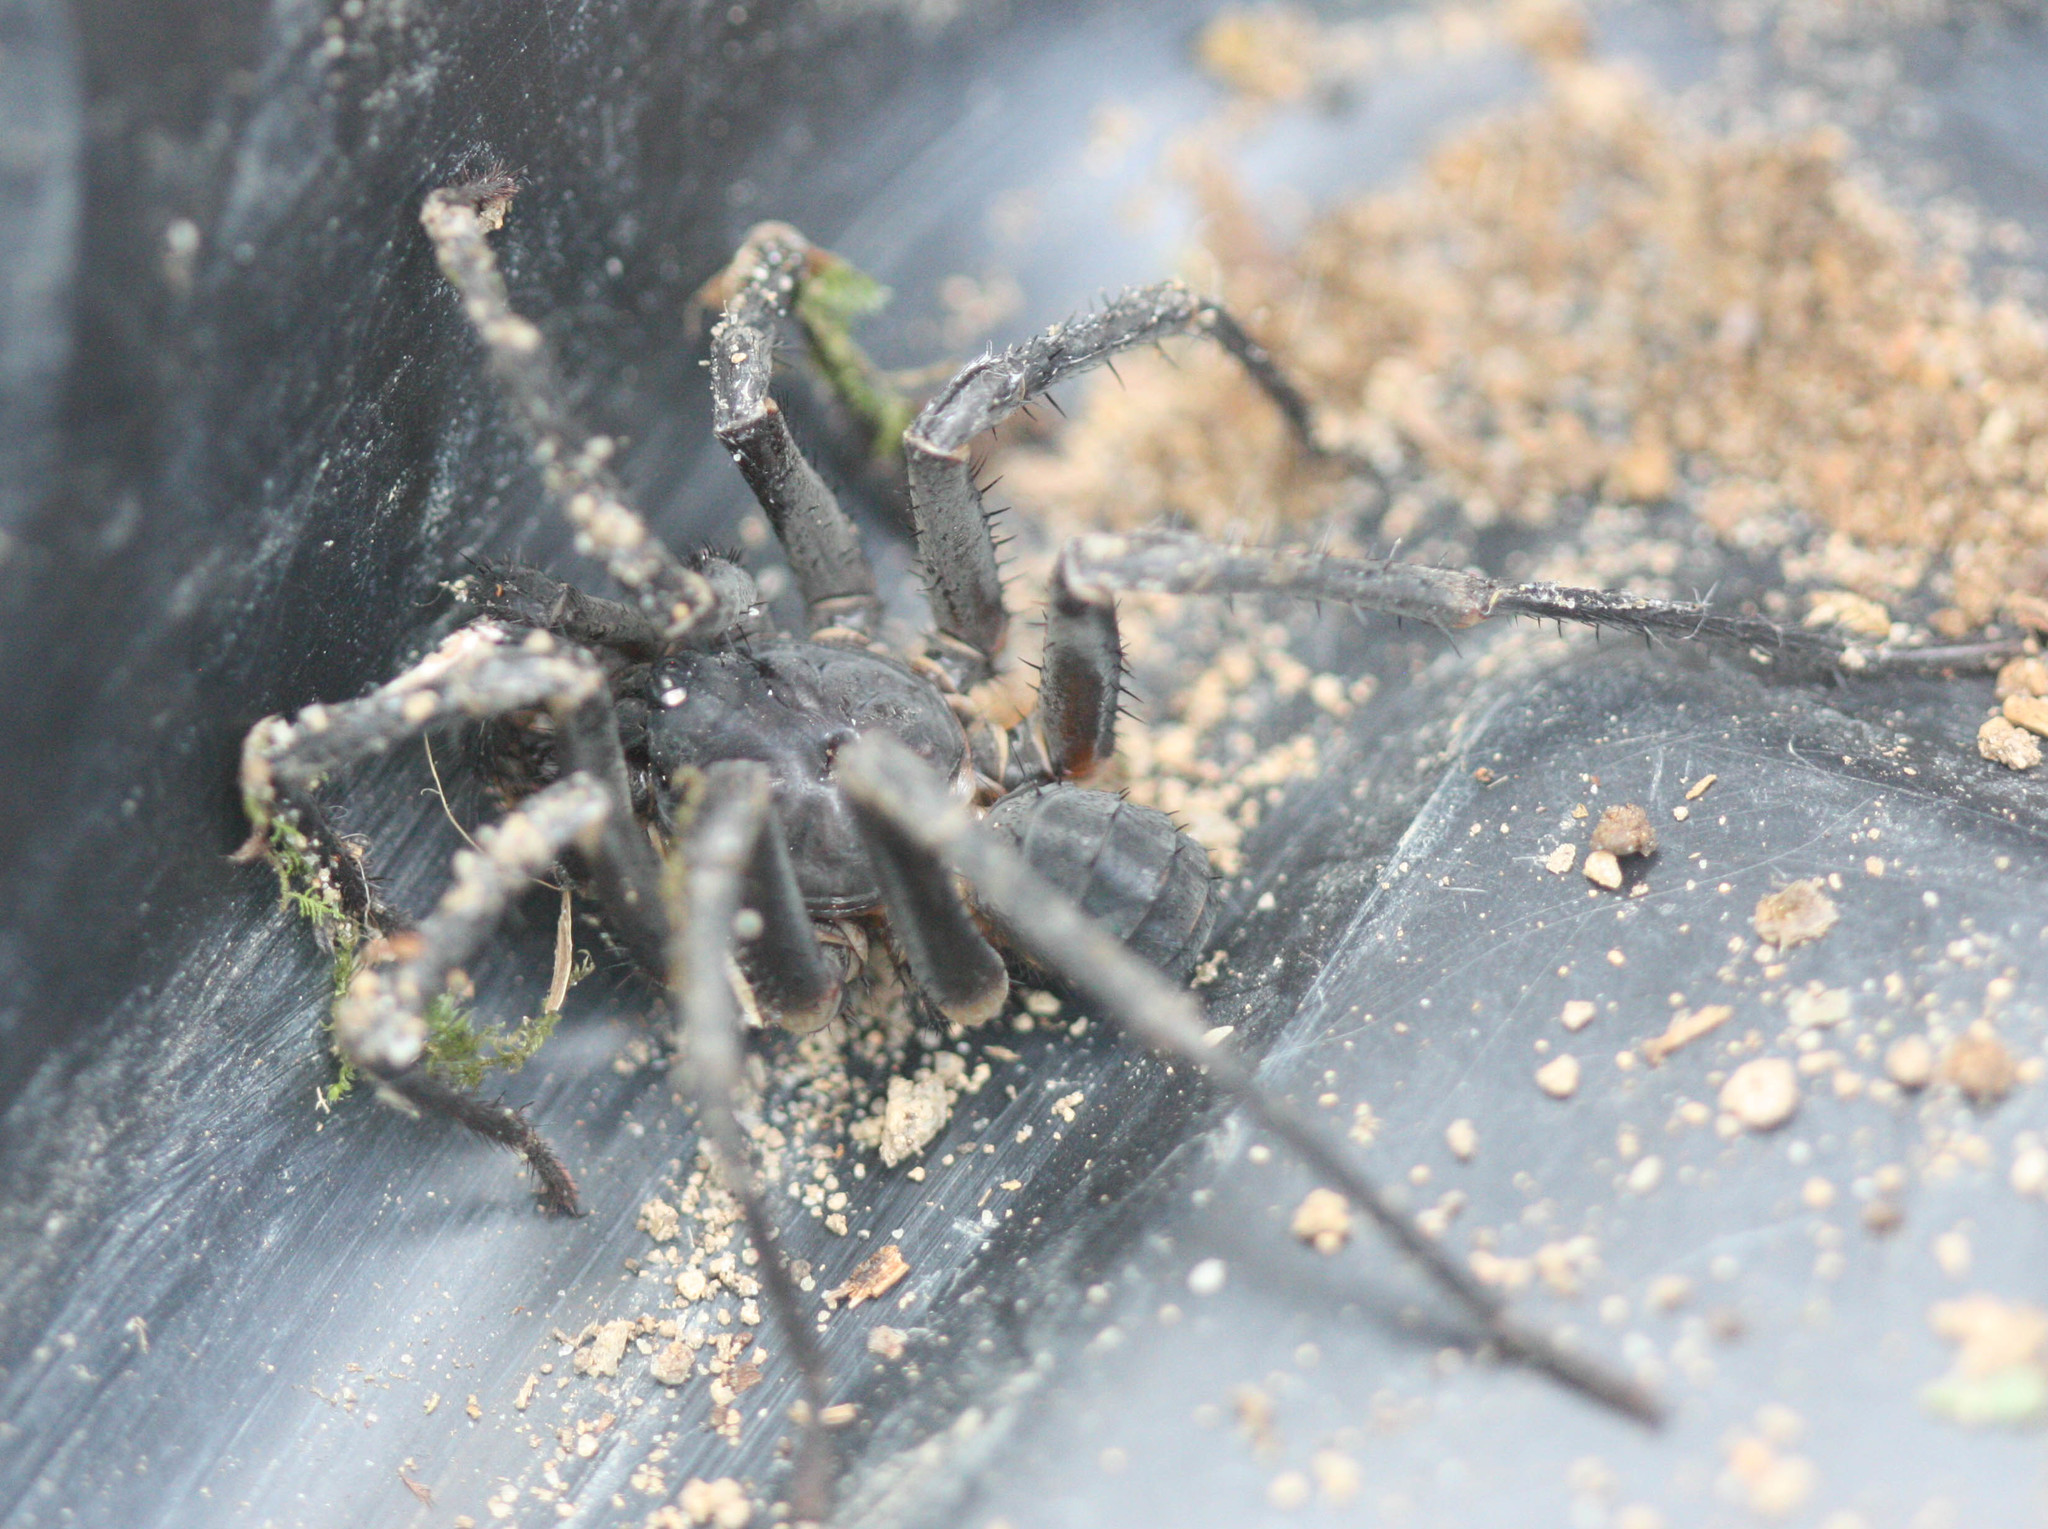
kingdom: Animalia
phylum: Arthropoda
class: Arachnida
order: Araneae
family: Liphistiidae
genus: Liphistius
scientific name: Liphistius desultor
